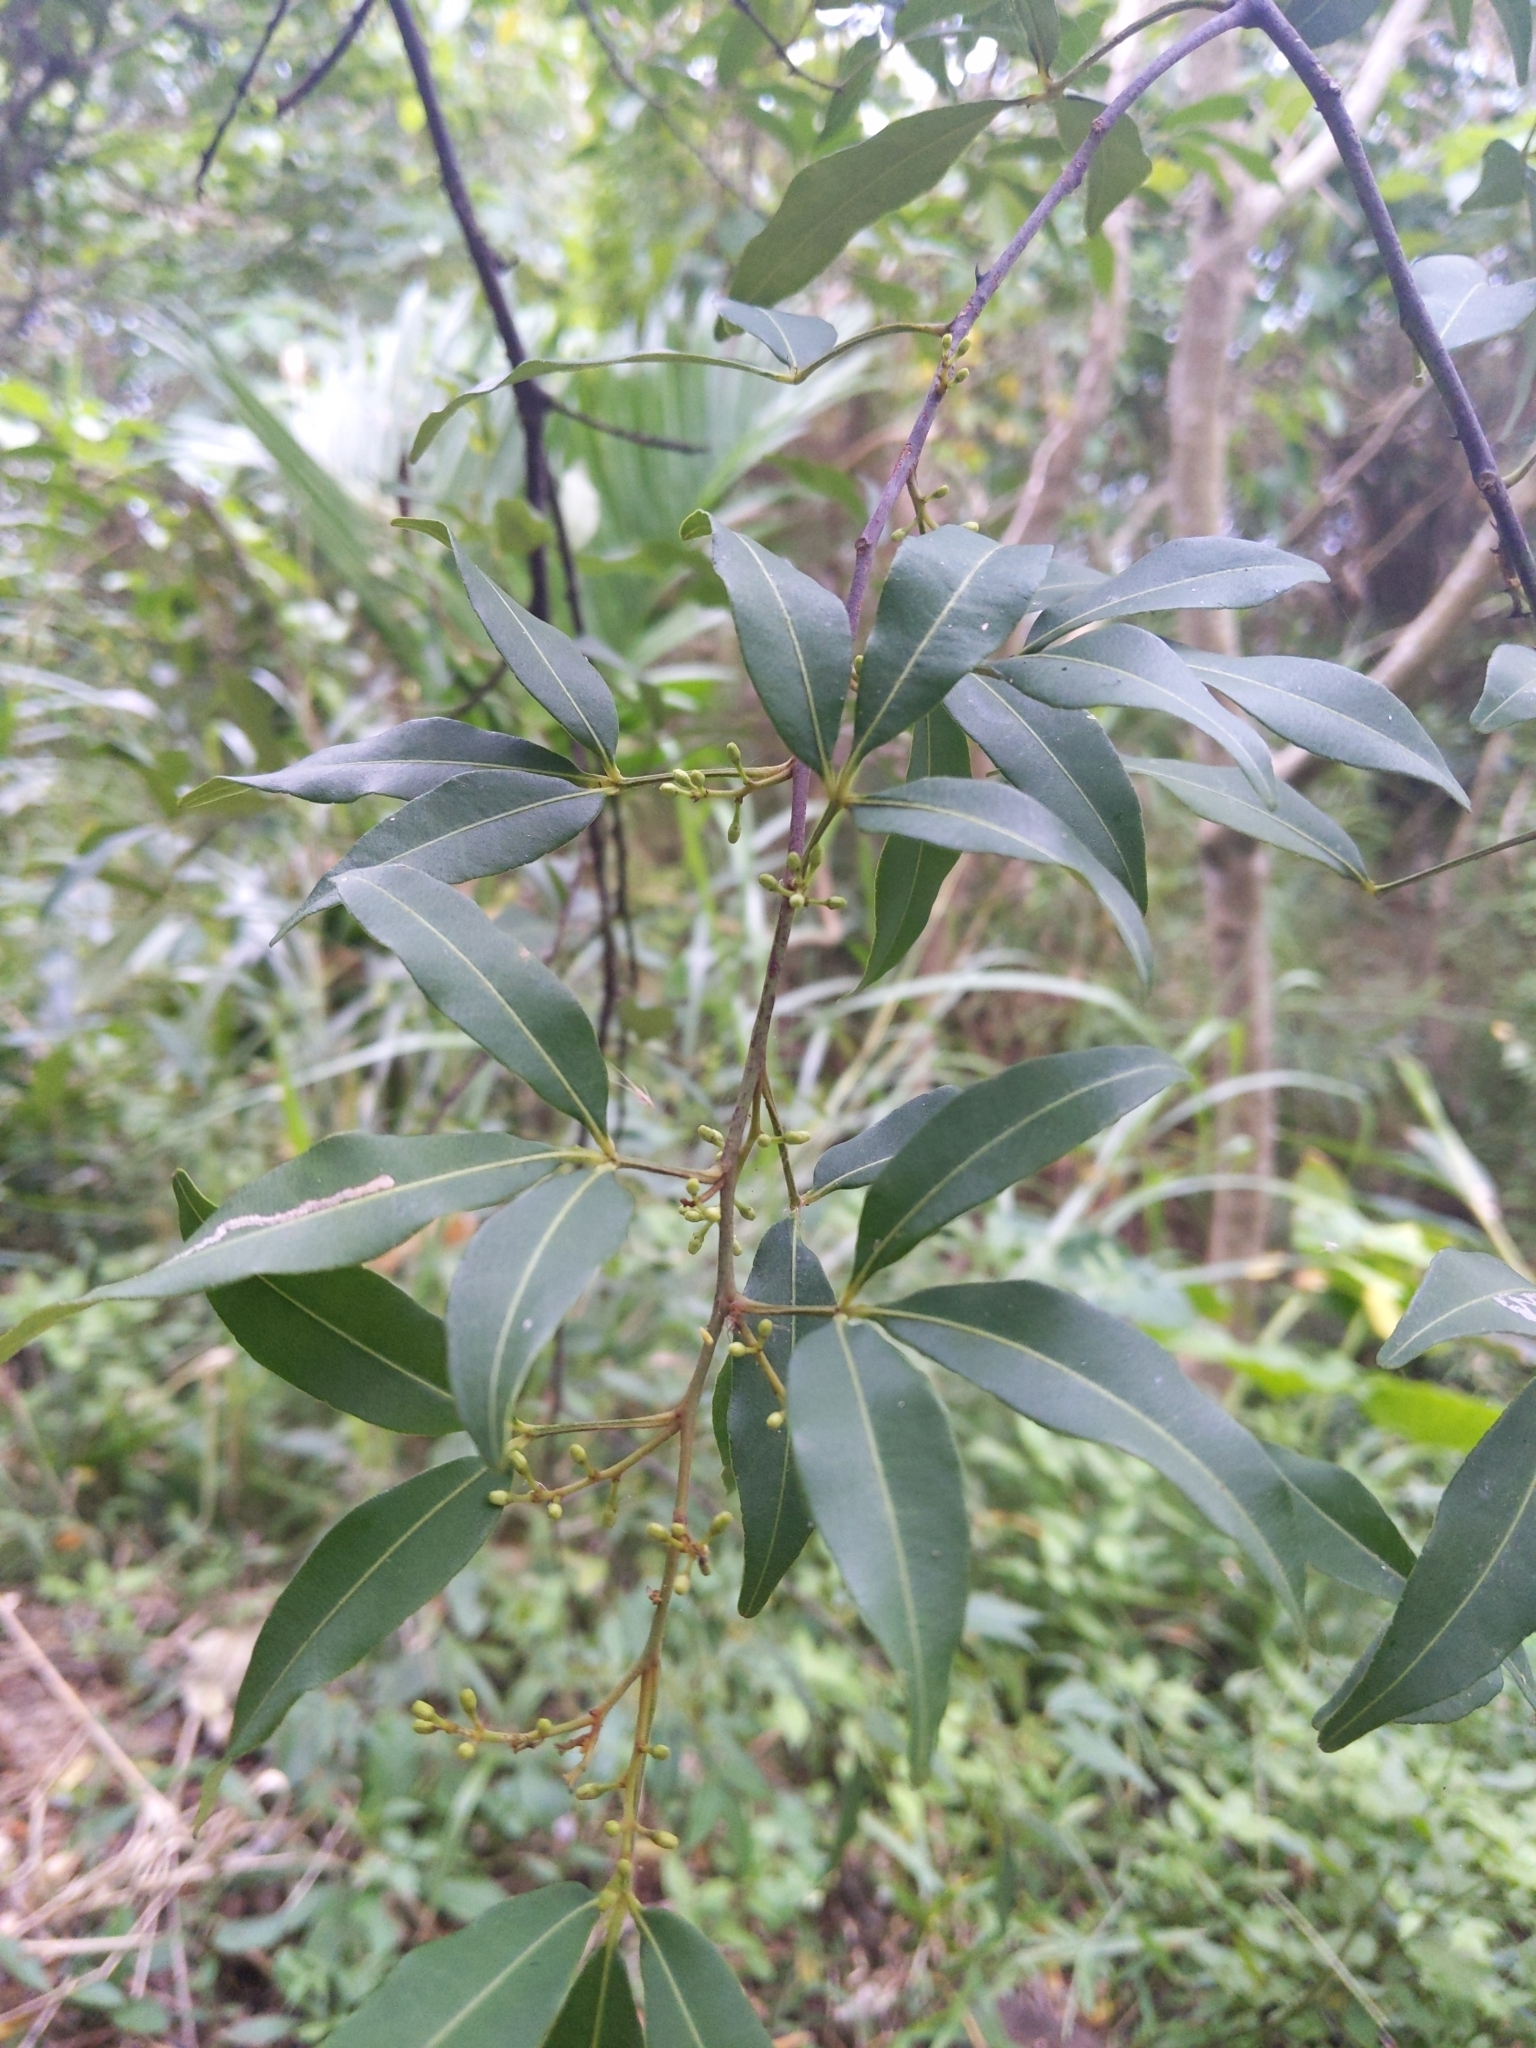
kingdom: Plantae
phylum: Tracheophyta
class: Magnoliopsida
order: Sapindales
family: Rutaceae
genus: Zanthoxylum
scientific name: Zanthoxylum asiaticum
